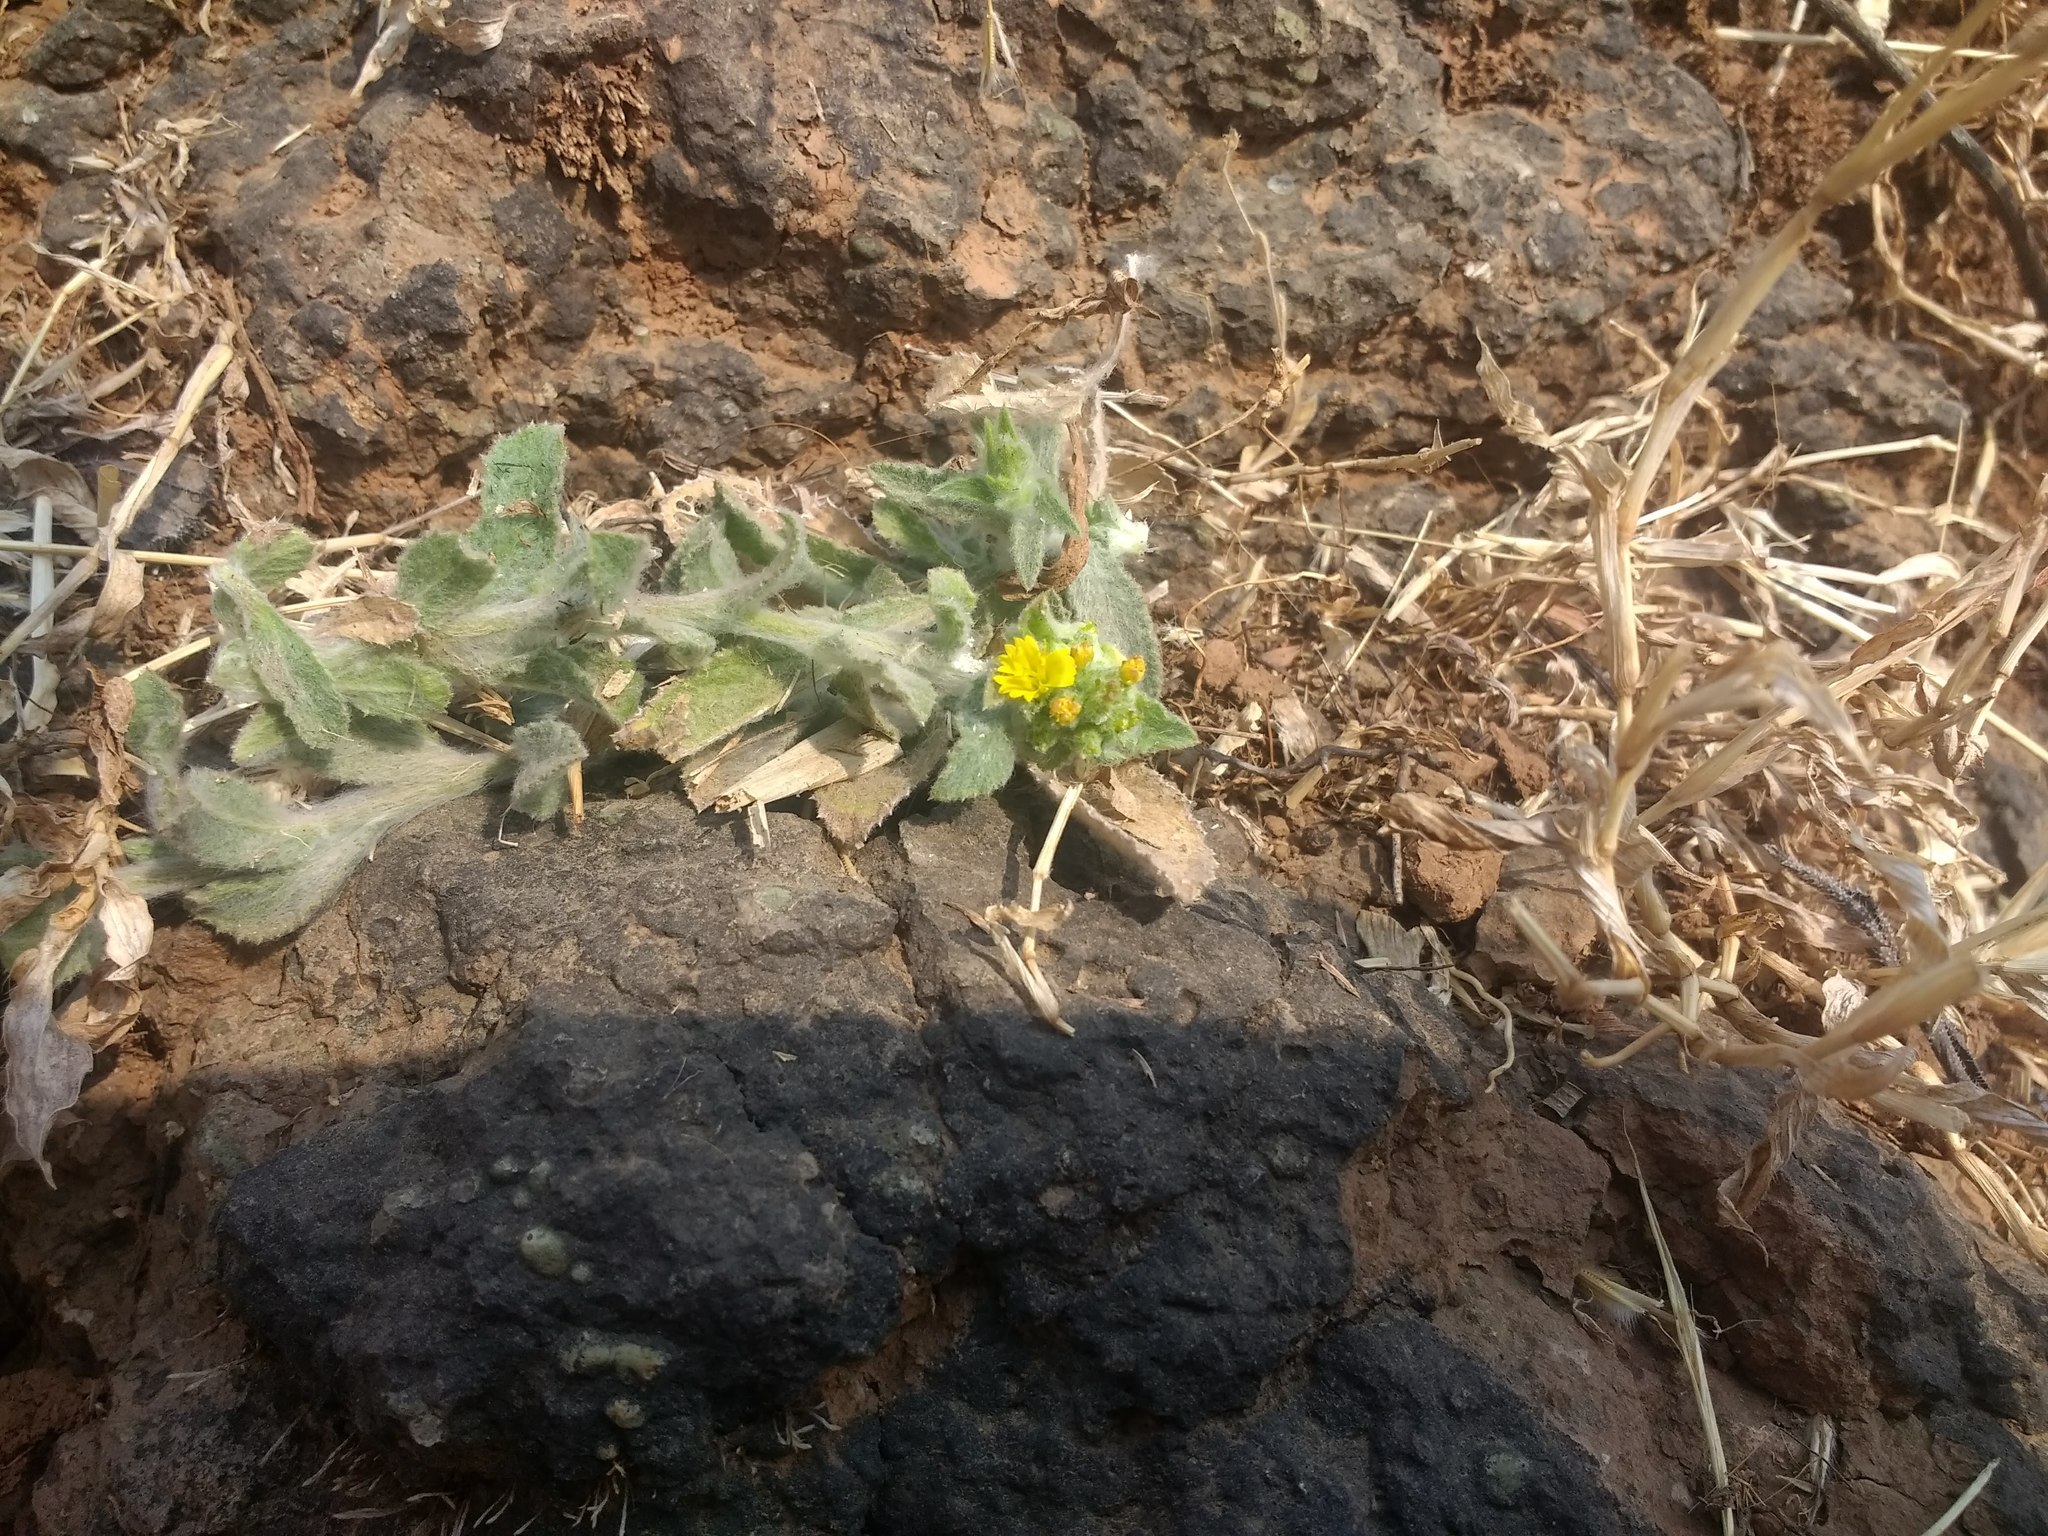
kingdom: Plantae
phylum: Tracheophyta
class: Magnoliopsida
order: Asterales
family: Asteraceae
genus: Nanothamnus
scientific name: Nanothamnus sericeus
